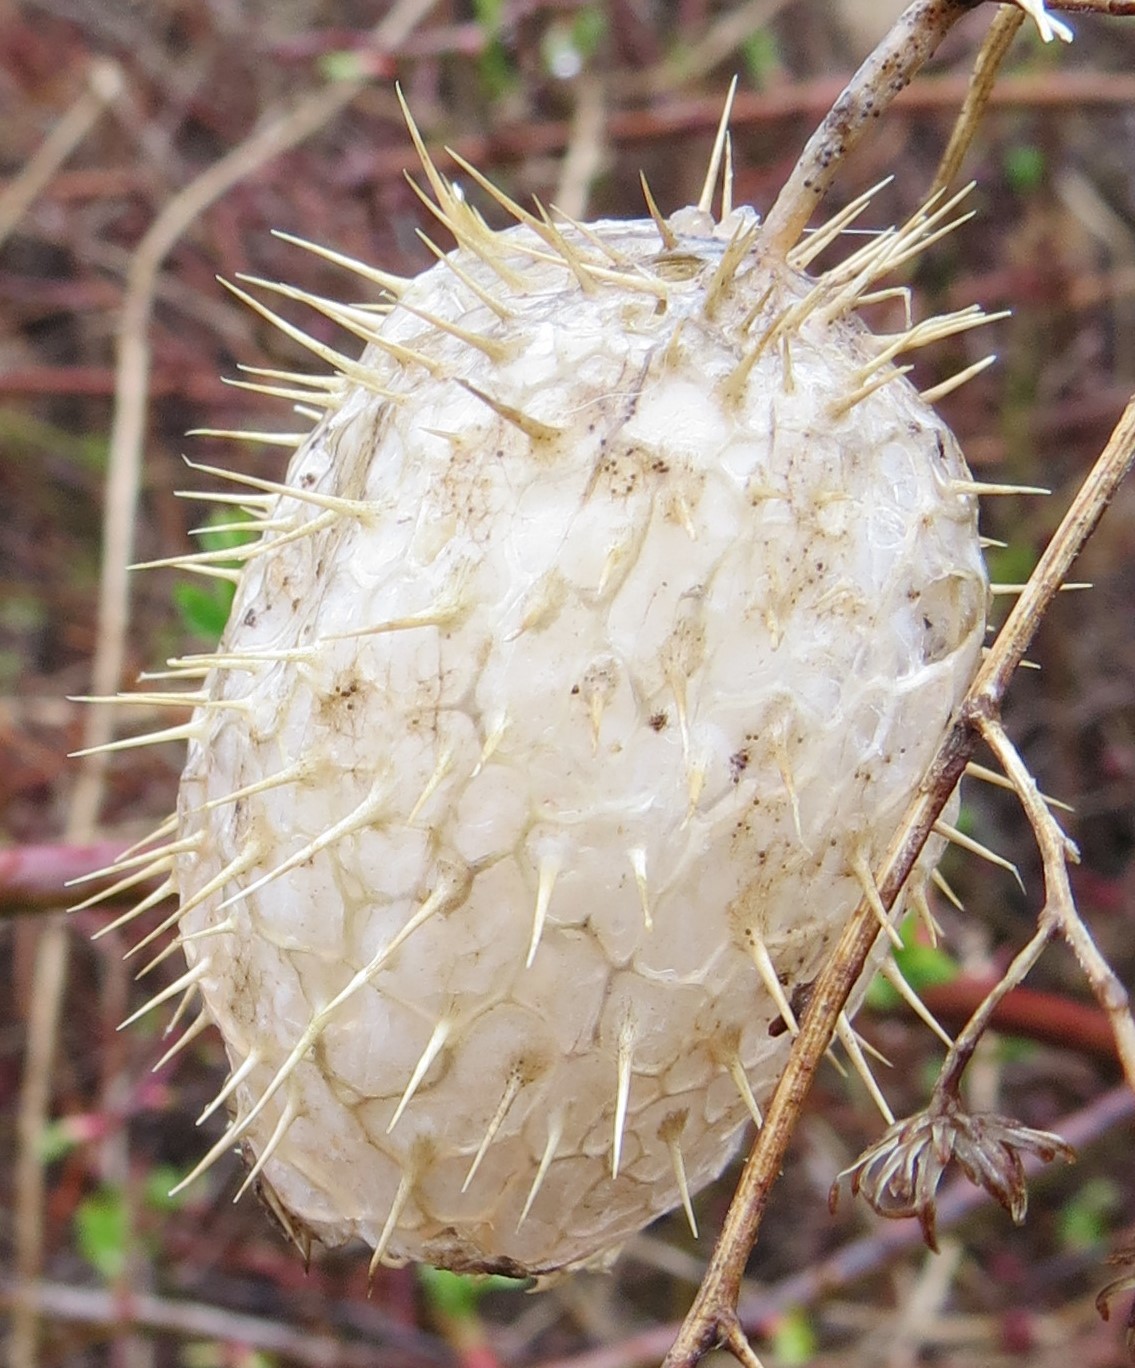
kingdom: Plantae
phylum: Tracheophyta
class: Magnoliopsida
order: Cucurbitales
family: Cucurbitaceae
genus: Echinocystis
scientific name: Echinocystis lobata
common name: Wild cucumber
